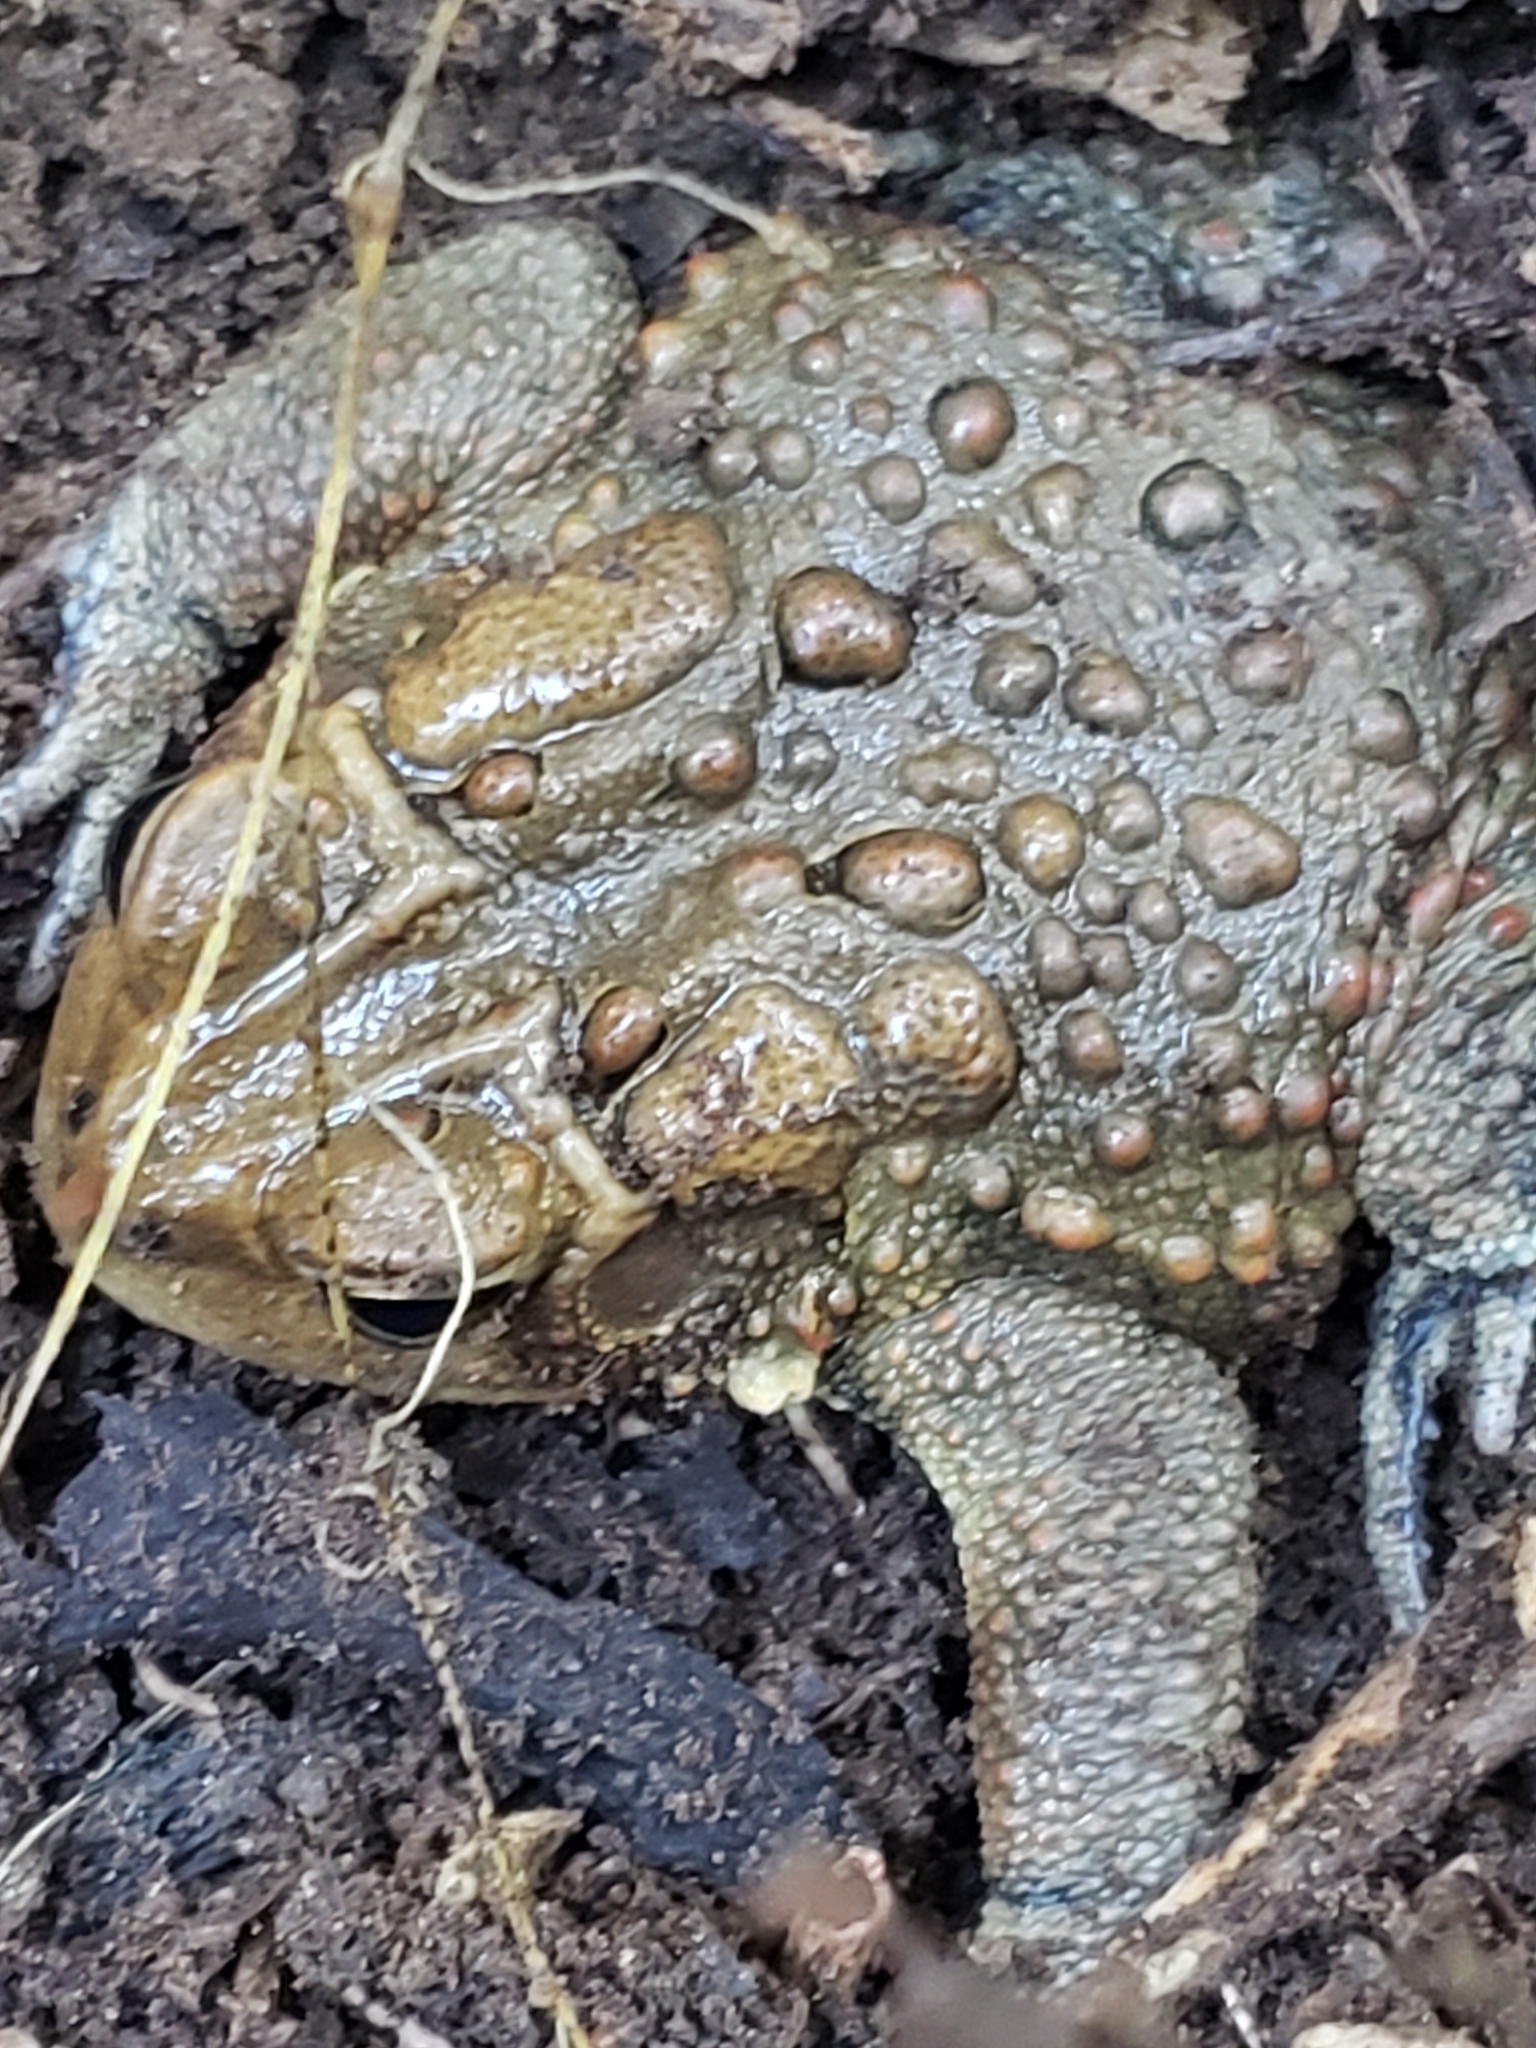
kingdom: Animalia
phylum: Chordata
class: Amphibia
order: Anura
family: Bufonidae
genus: Anaxyrus
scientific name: Anaxyrus americanus
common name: American toad
